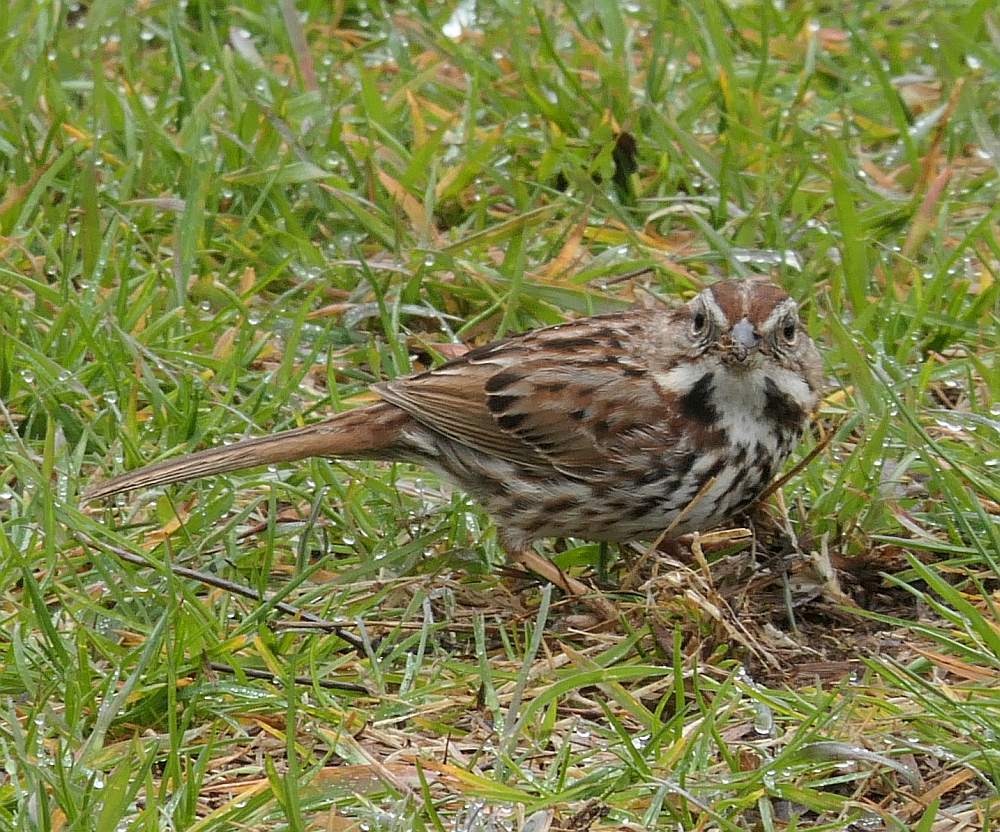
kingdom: Animalia
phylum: Chordata
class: Aves
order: Passeriformes
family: Passerellidae
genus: Melospiza
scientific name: Melospiza melodia
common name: Song sparrow
